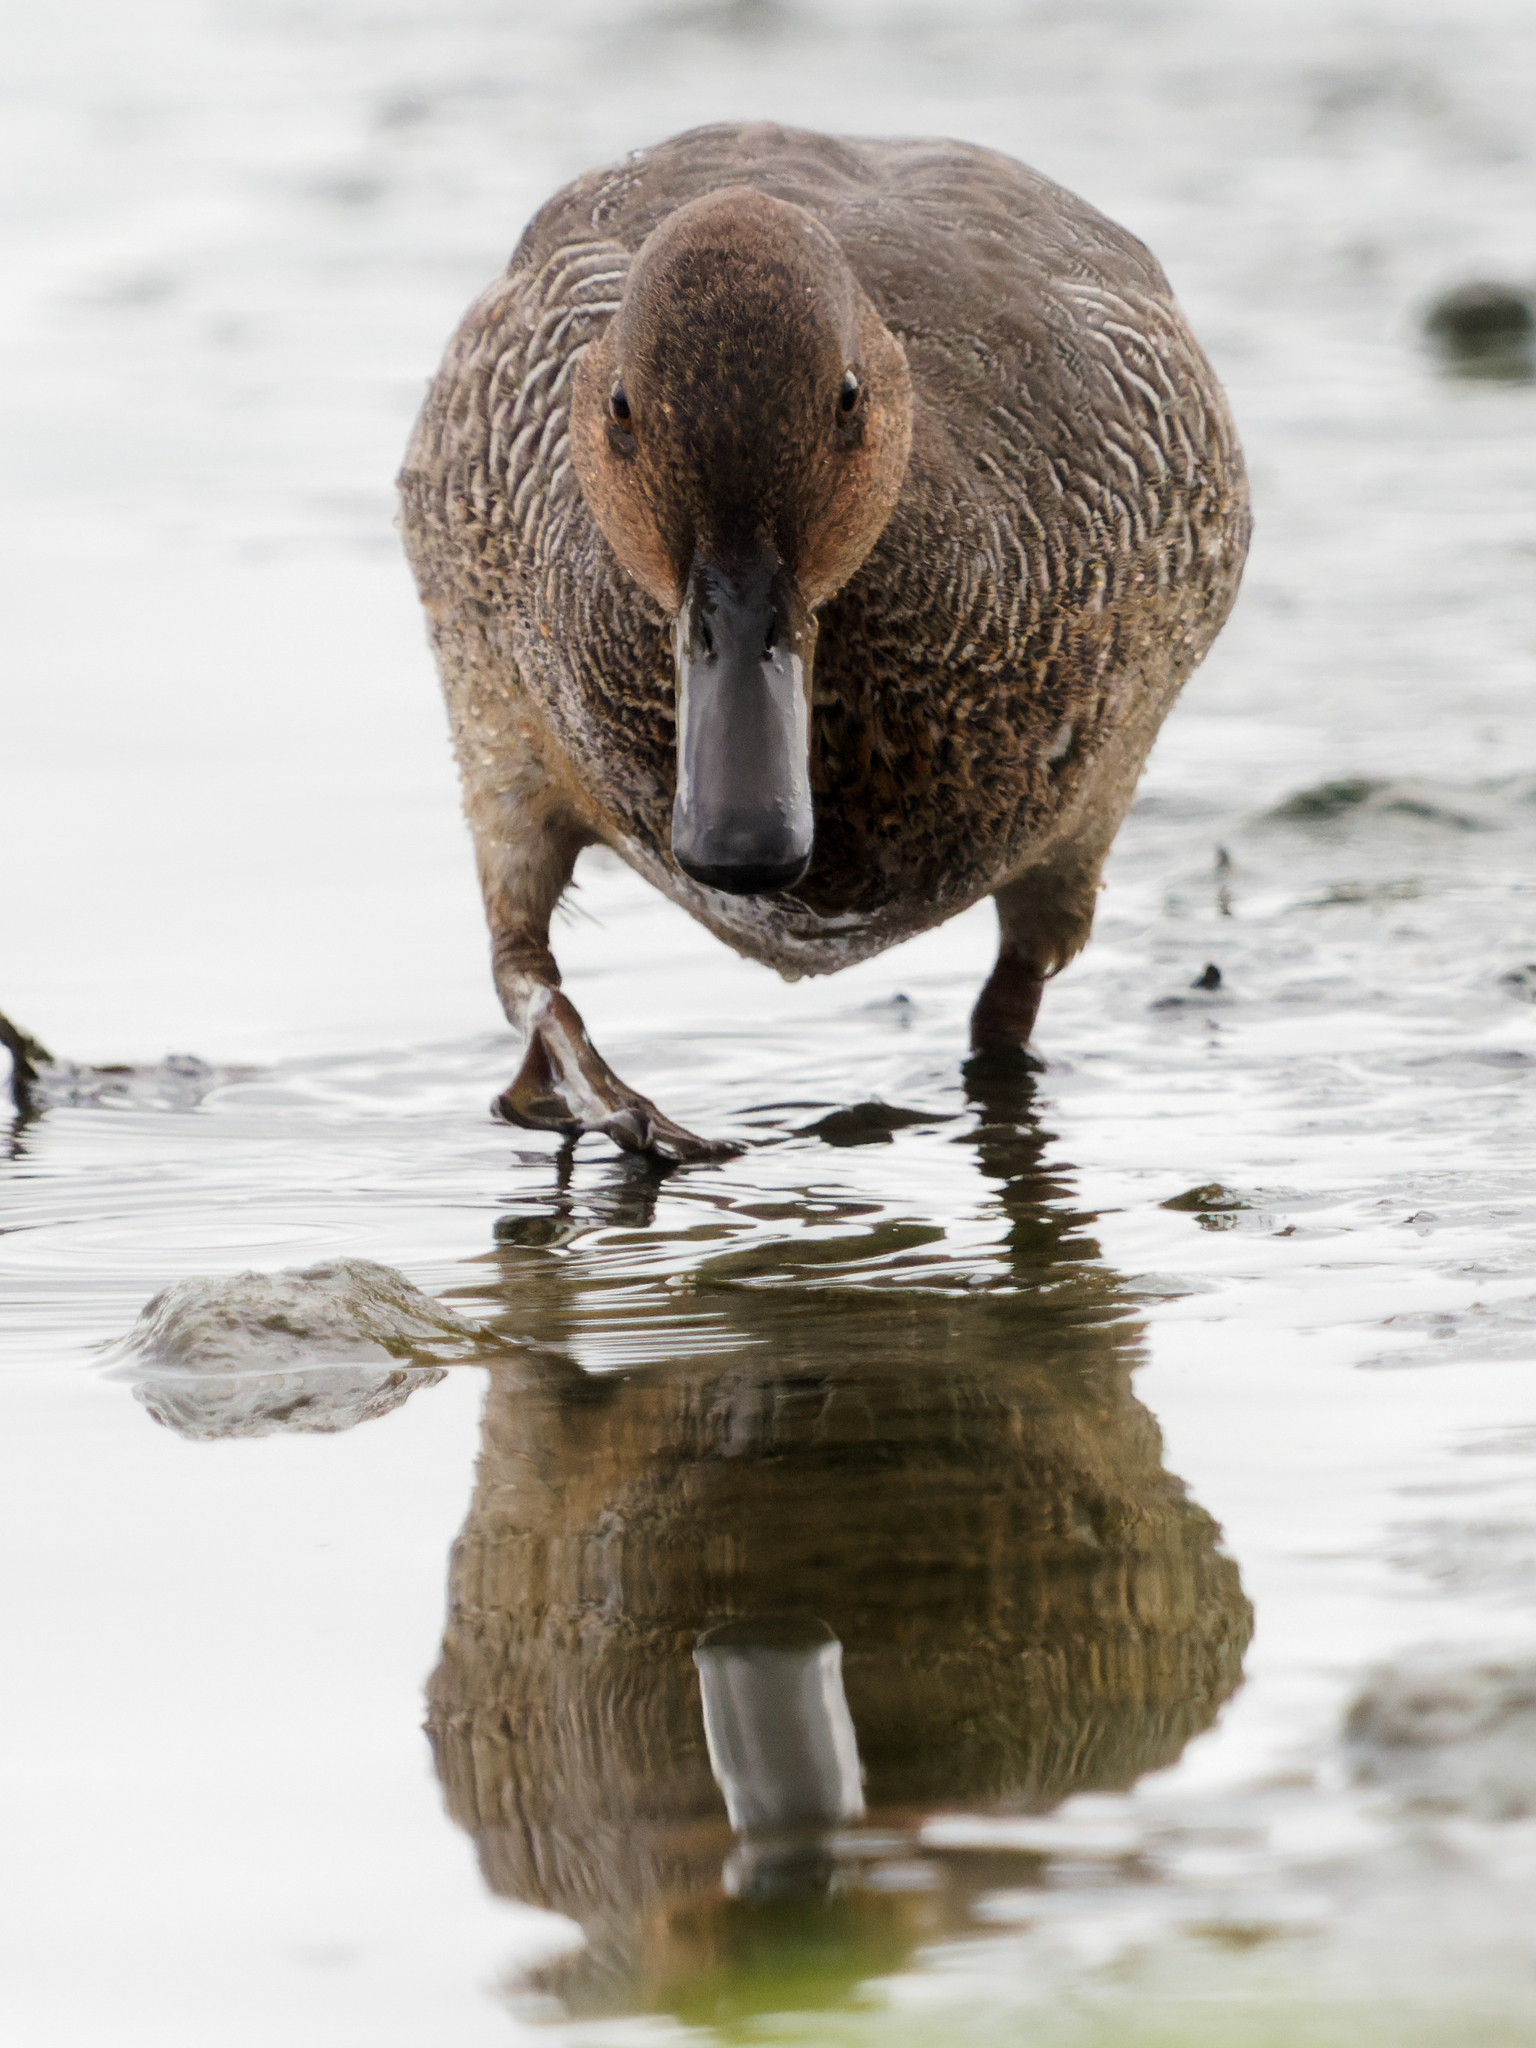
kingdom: Animalia
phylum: Chordata
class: Aves
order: Anseriformes
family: Anatidae
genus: Anas
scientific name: Anas crecca
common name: Eurasian teal
